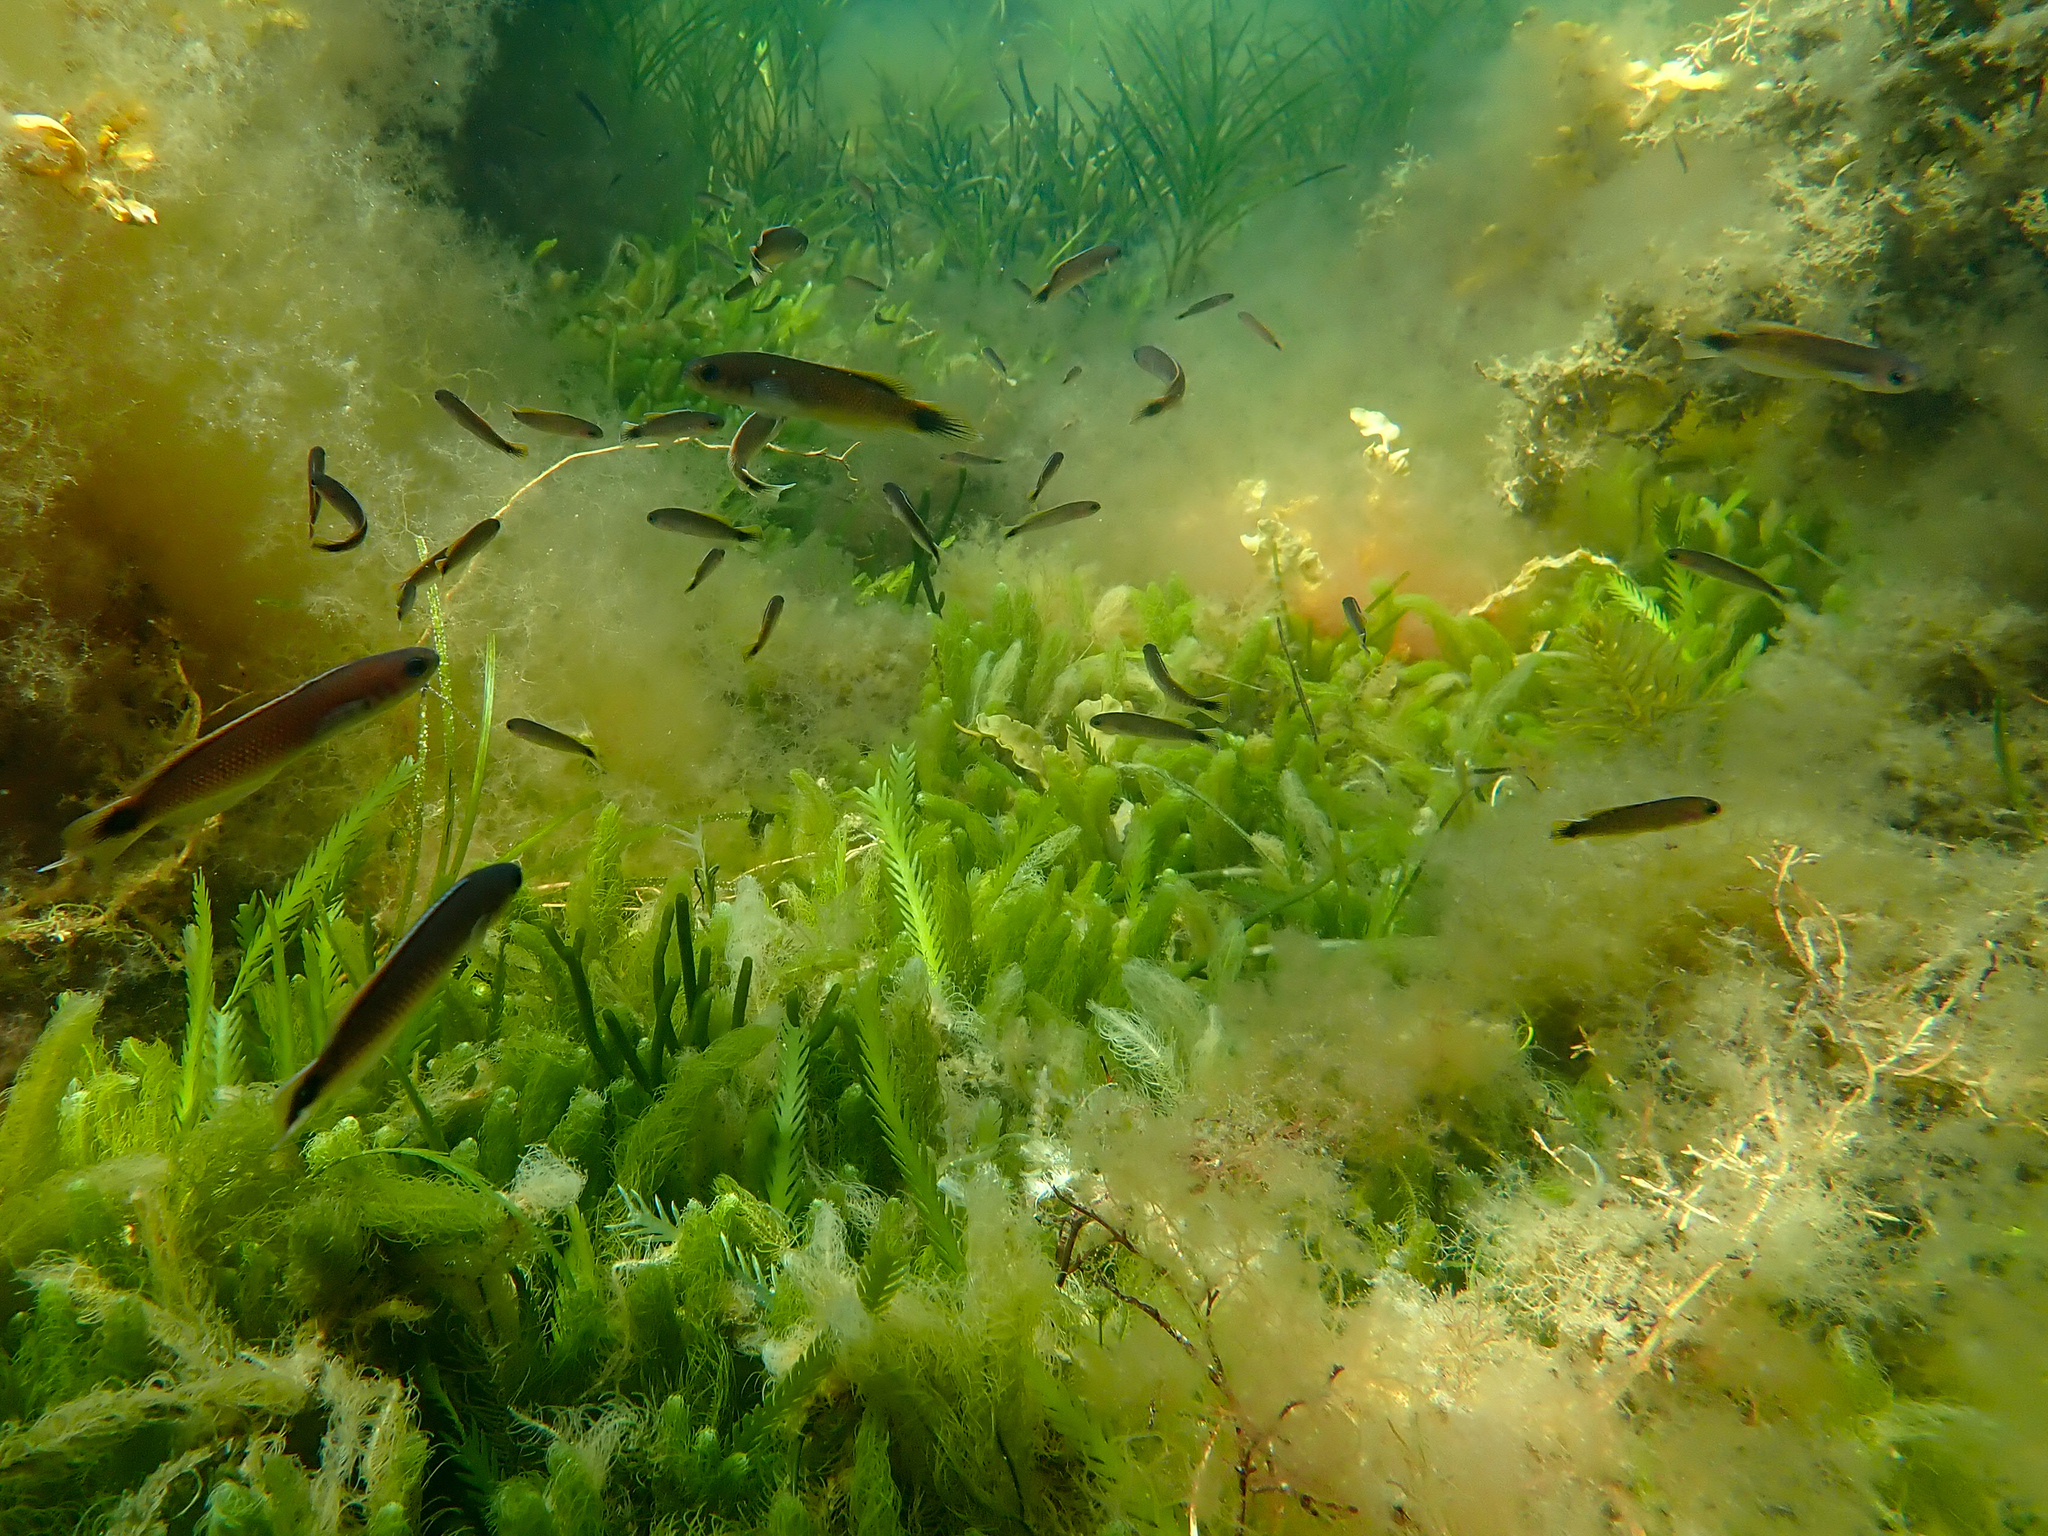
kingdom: Animalia
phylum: Chordata
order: Perciformes
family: Plesiopidae
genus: Trachinops
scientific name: Trachinops caudimaculatus
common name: Blotched-tailed trachinops
